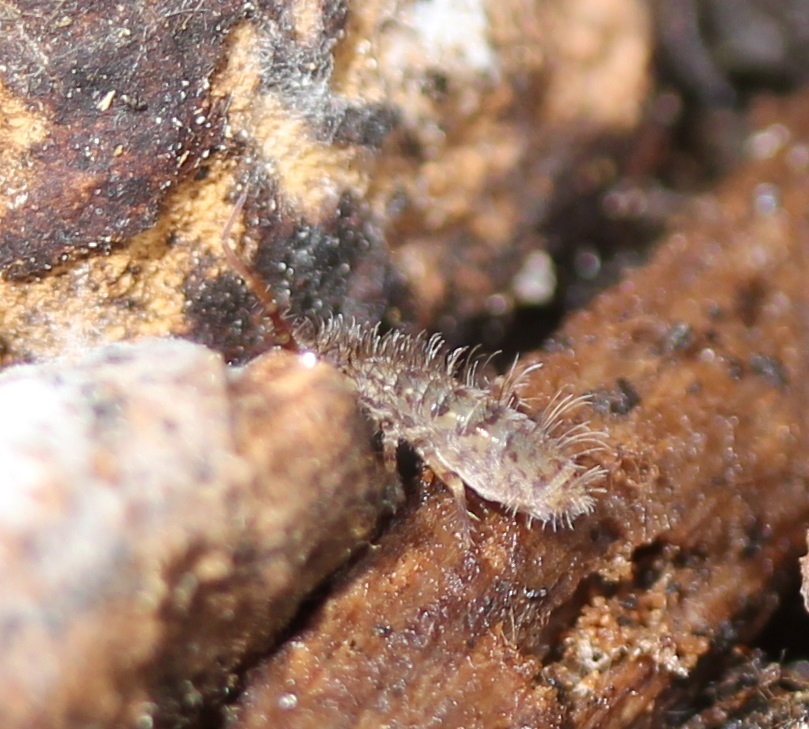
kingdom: Animalia
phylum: Arthropoda
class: Collembola
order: Entomobryomorpha
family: Orchesellidae
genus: Orchesella
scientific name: Orchesella villosa
